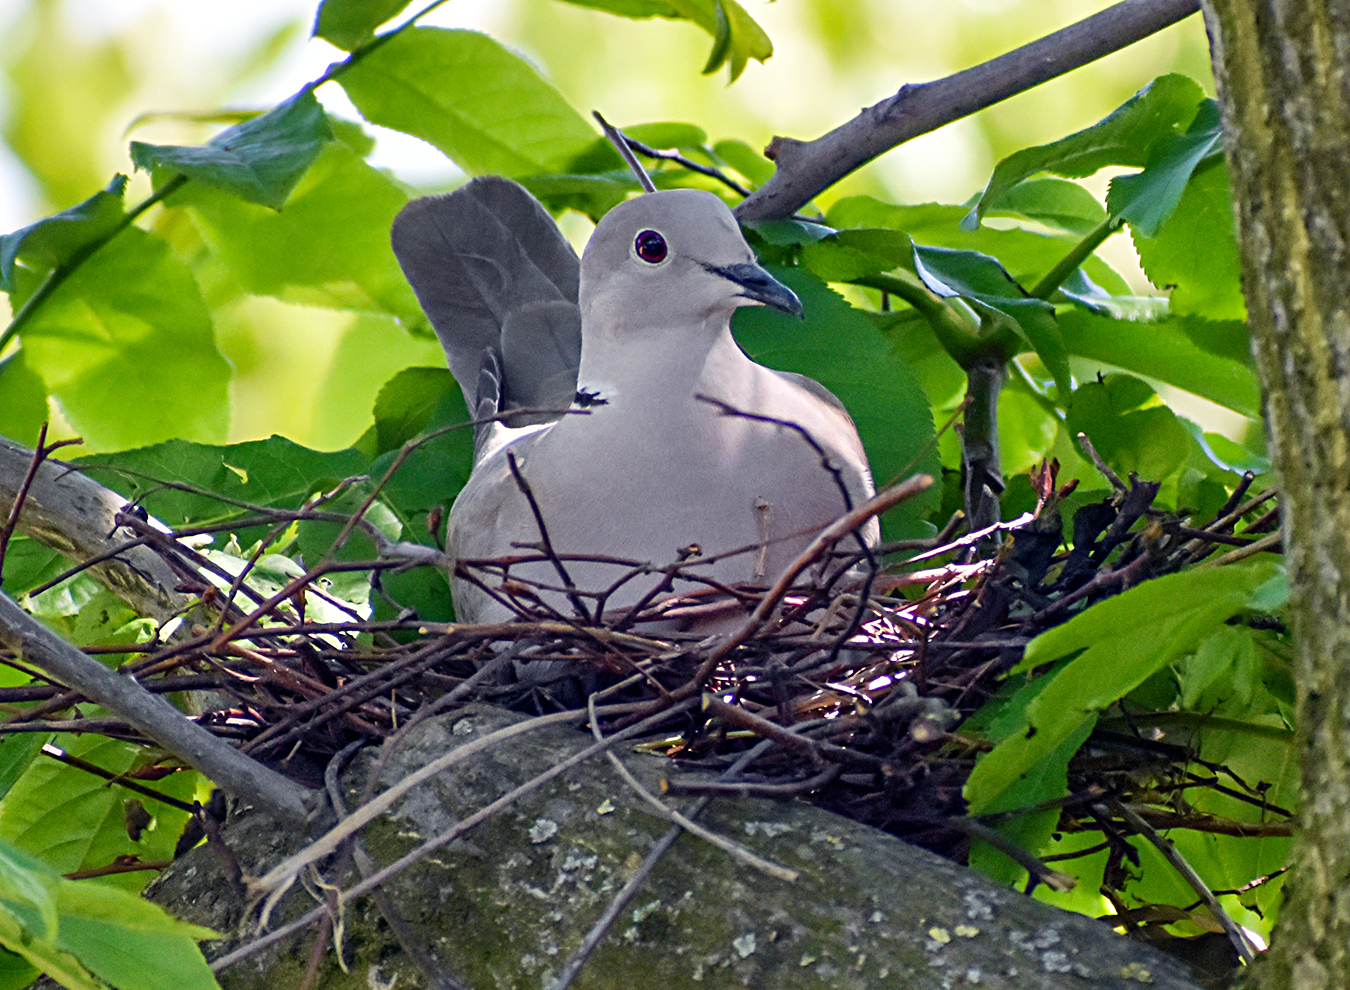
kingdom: Animalia
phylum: Chordata
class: Aves
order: Columbiformes
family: Columbidae
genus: Streptopelia
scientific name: Streptopelia decaocto
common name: Eurasian collared dove
